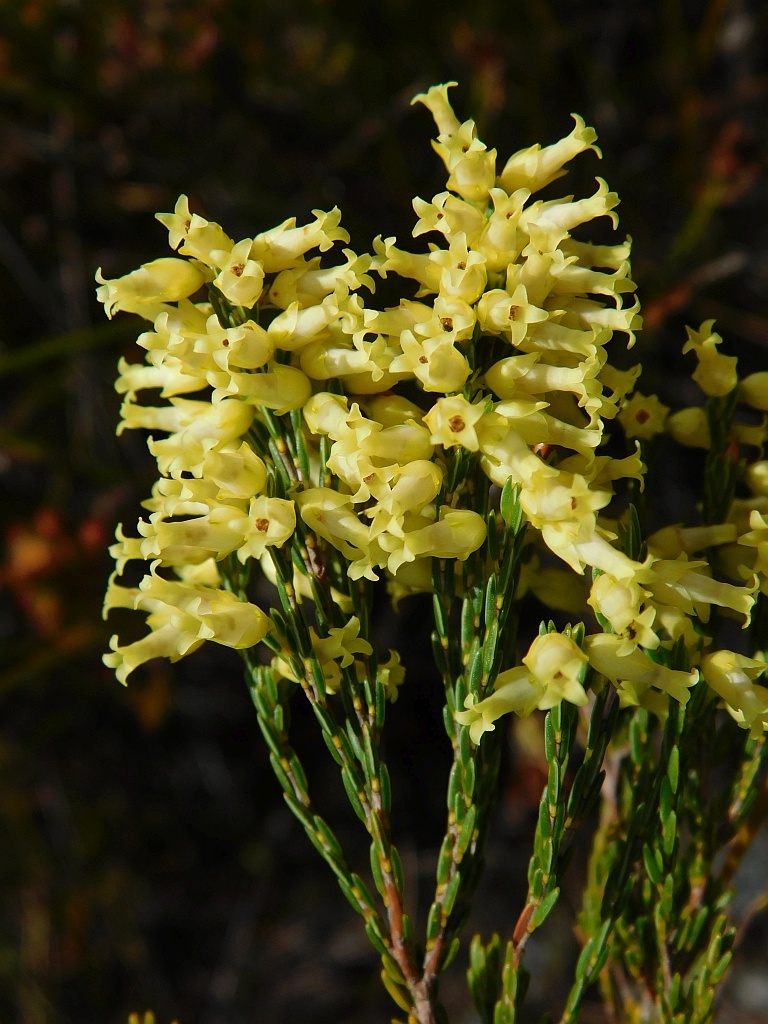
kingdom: Plantae
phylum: Tracheophyta
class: Magnoliopsida
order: Ericales
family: Ericaceae
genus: Erica
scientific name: Erica lutea
